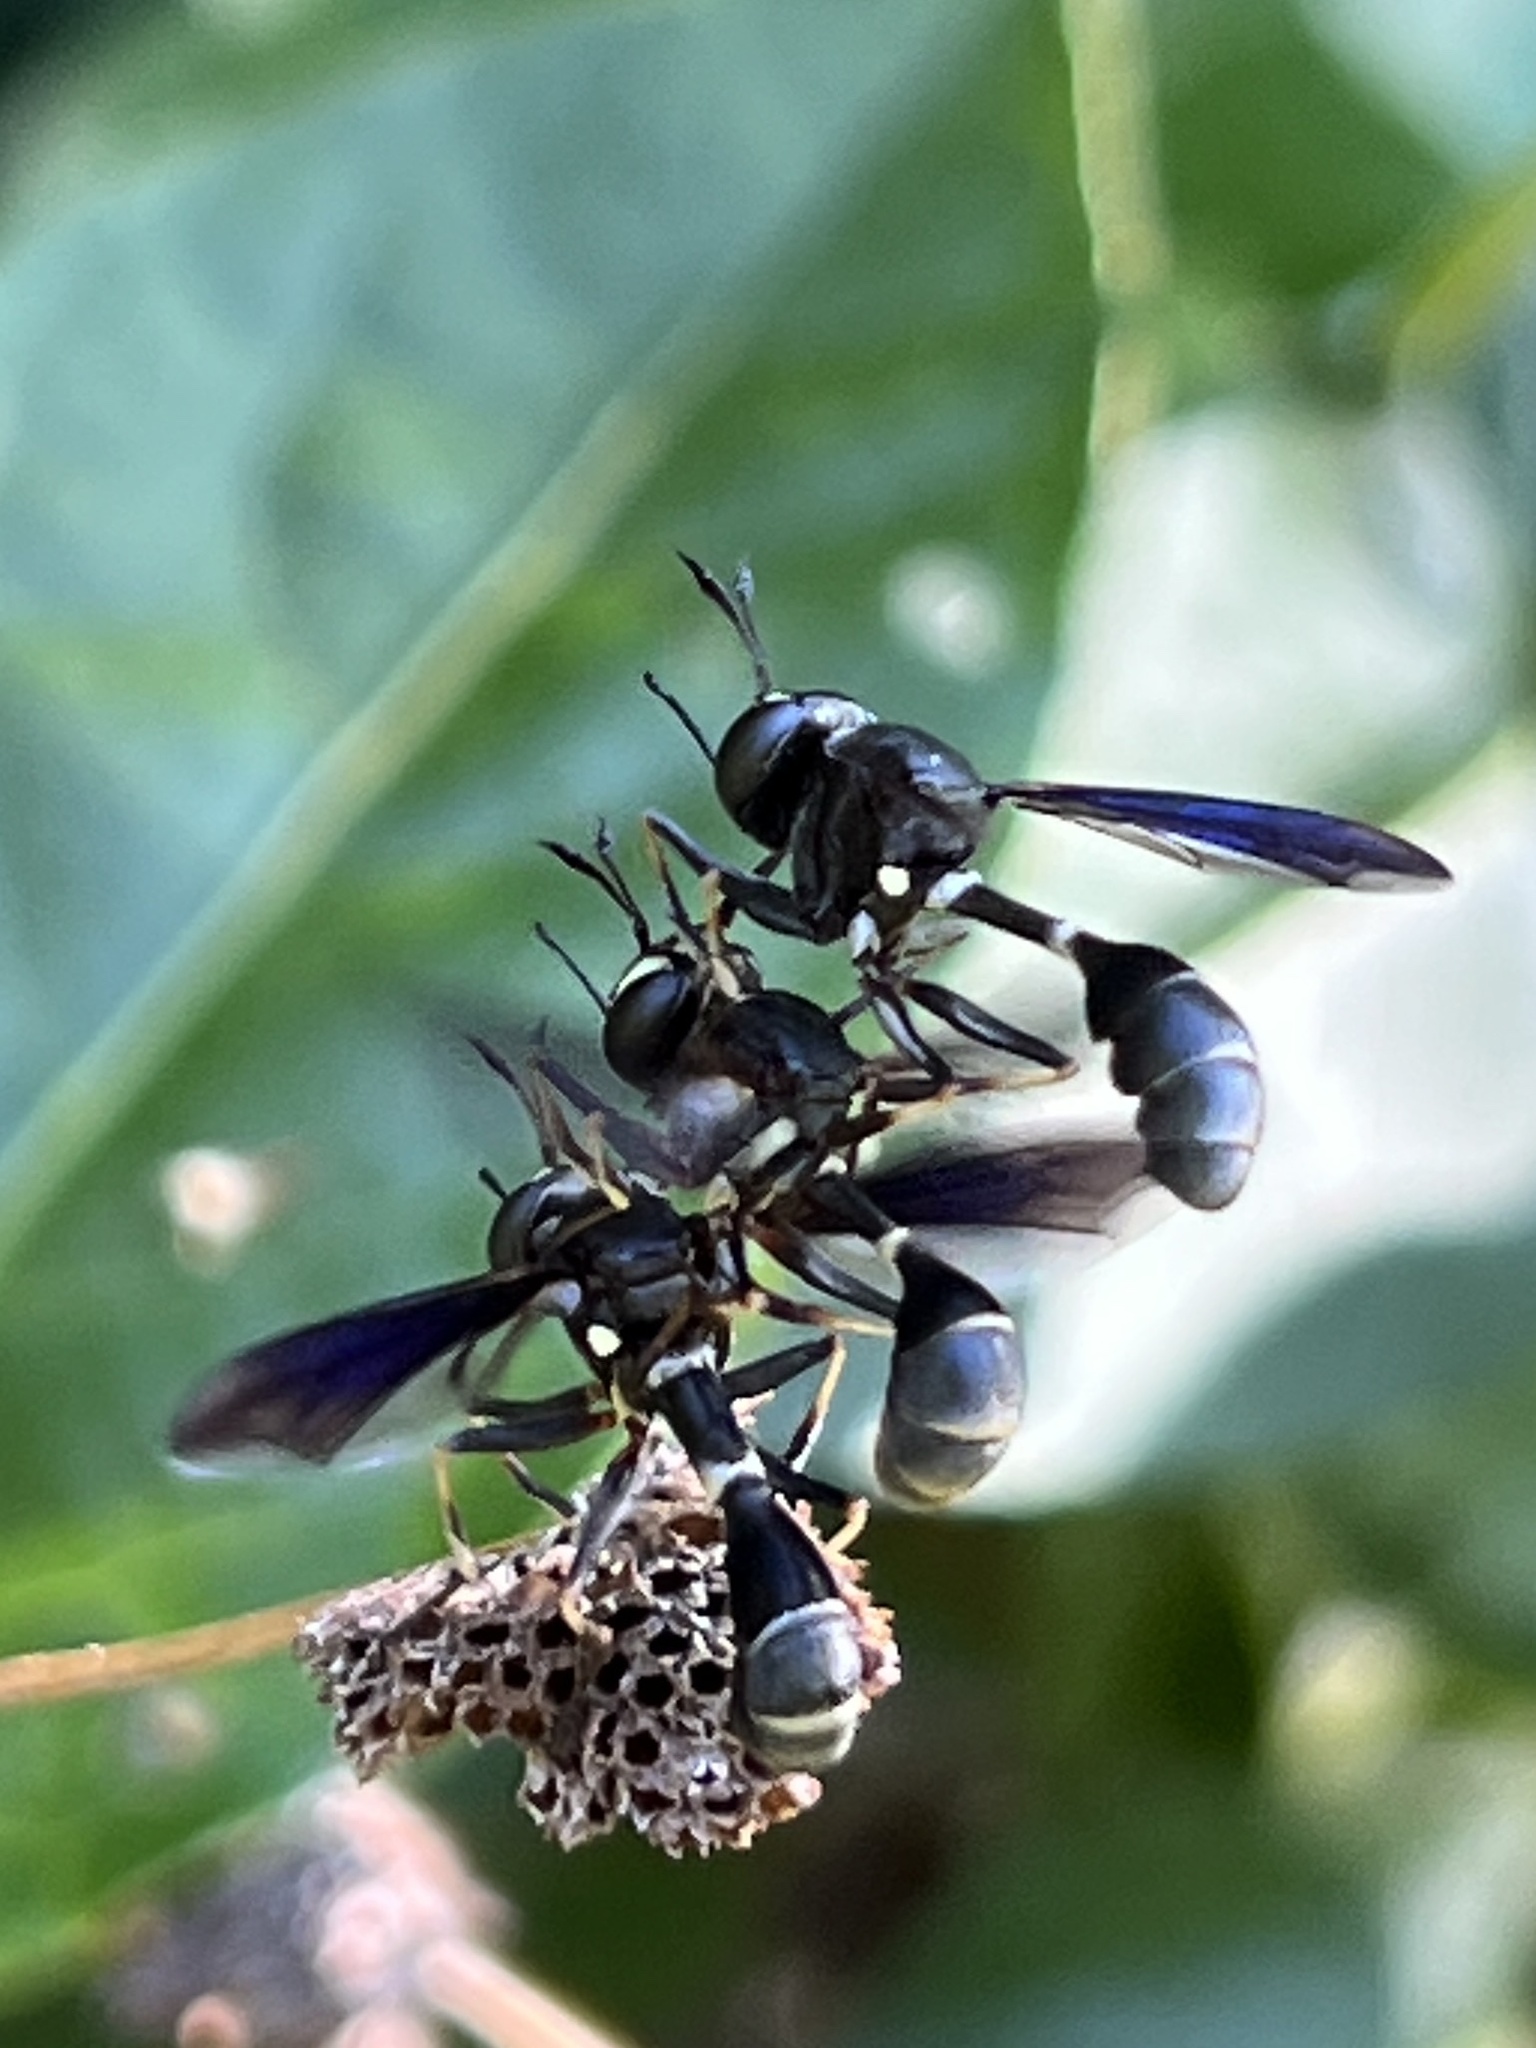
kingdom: Animalia
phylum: Arthropoda
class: Insecta
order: Diptera
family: Conopidae
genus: Physocephala
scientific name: Physocephala tibialis
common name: Common eastern physocephala
